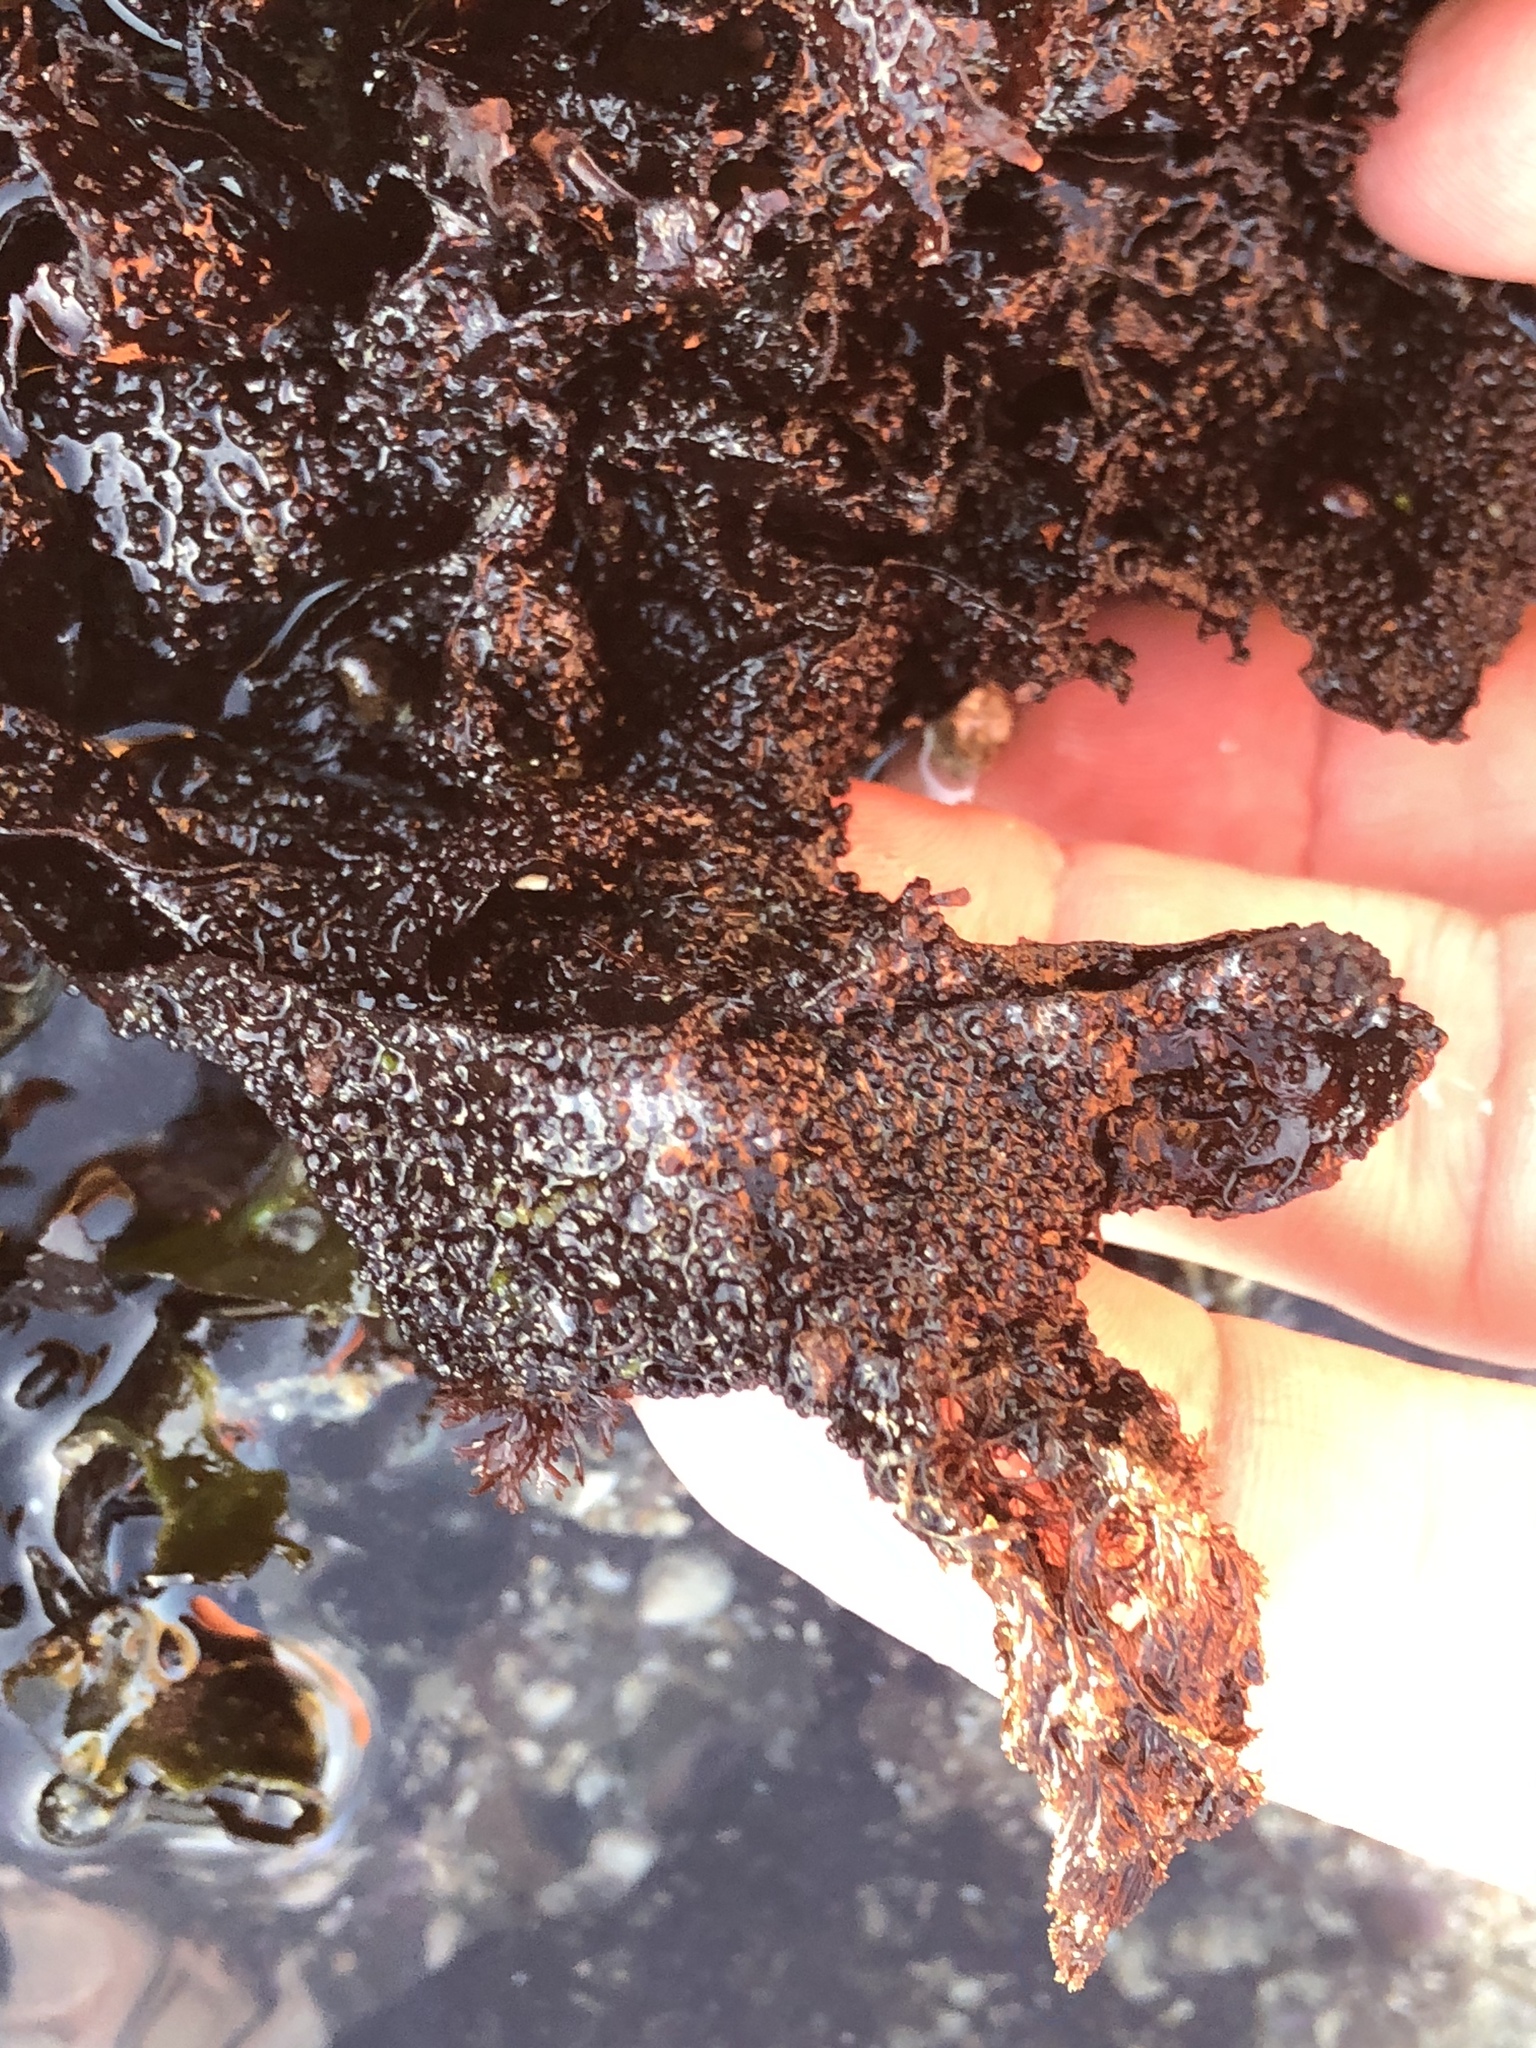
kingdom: Plantae
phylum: Rhodophyta
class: Florideophyceae
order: Gigartinales
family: Phyllophoraceae
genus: Mastocarpus
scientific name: Mastocarpus papillatus
